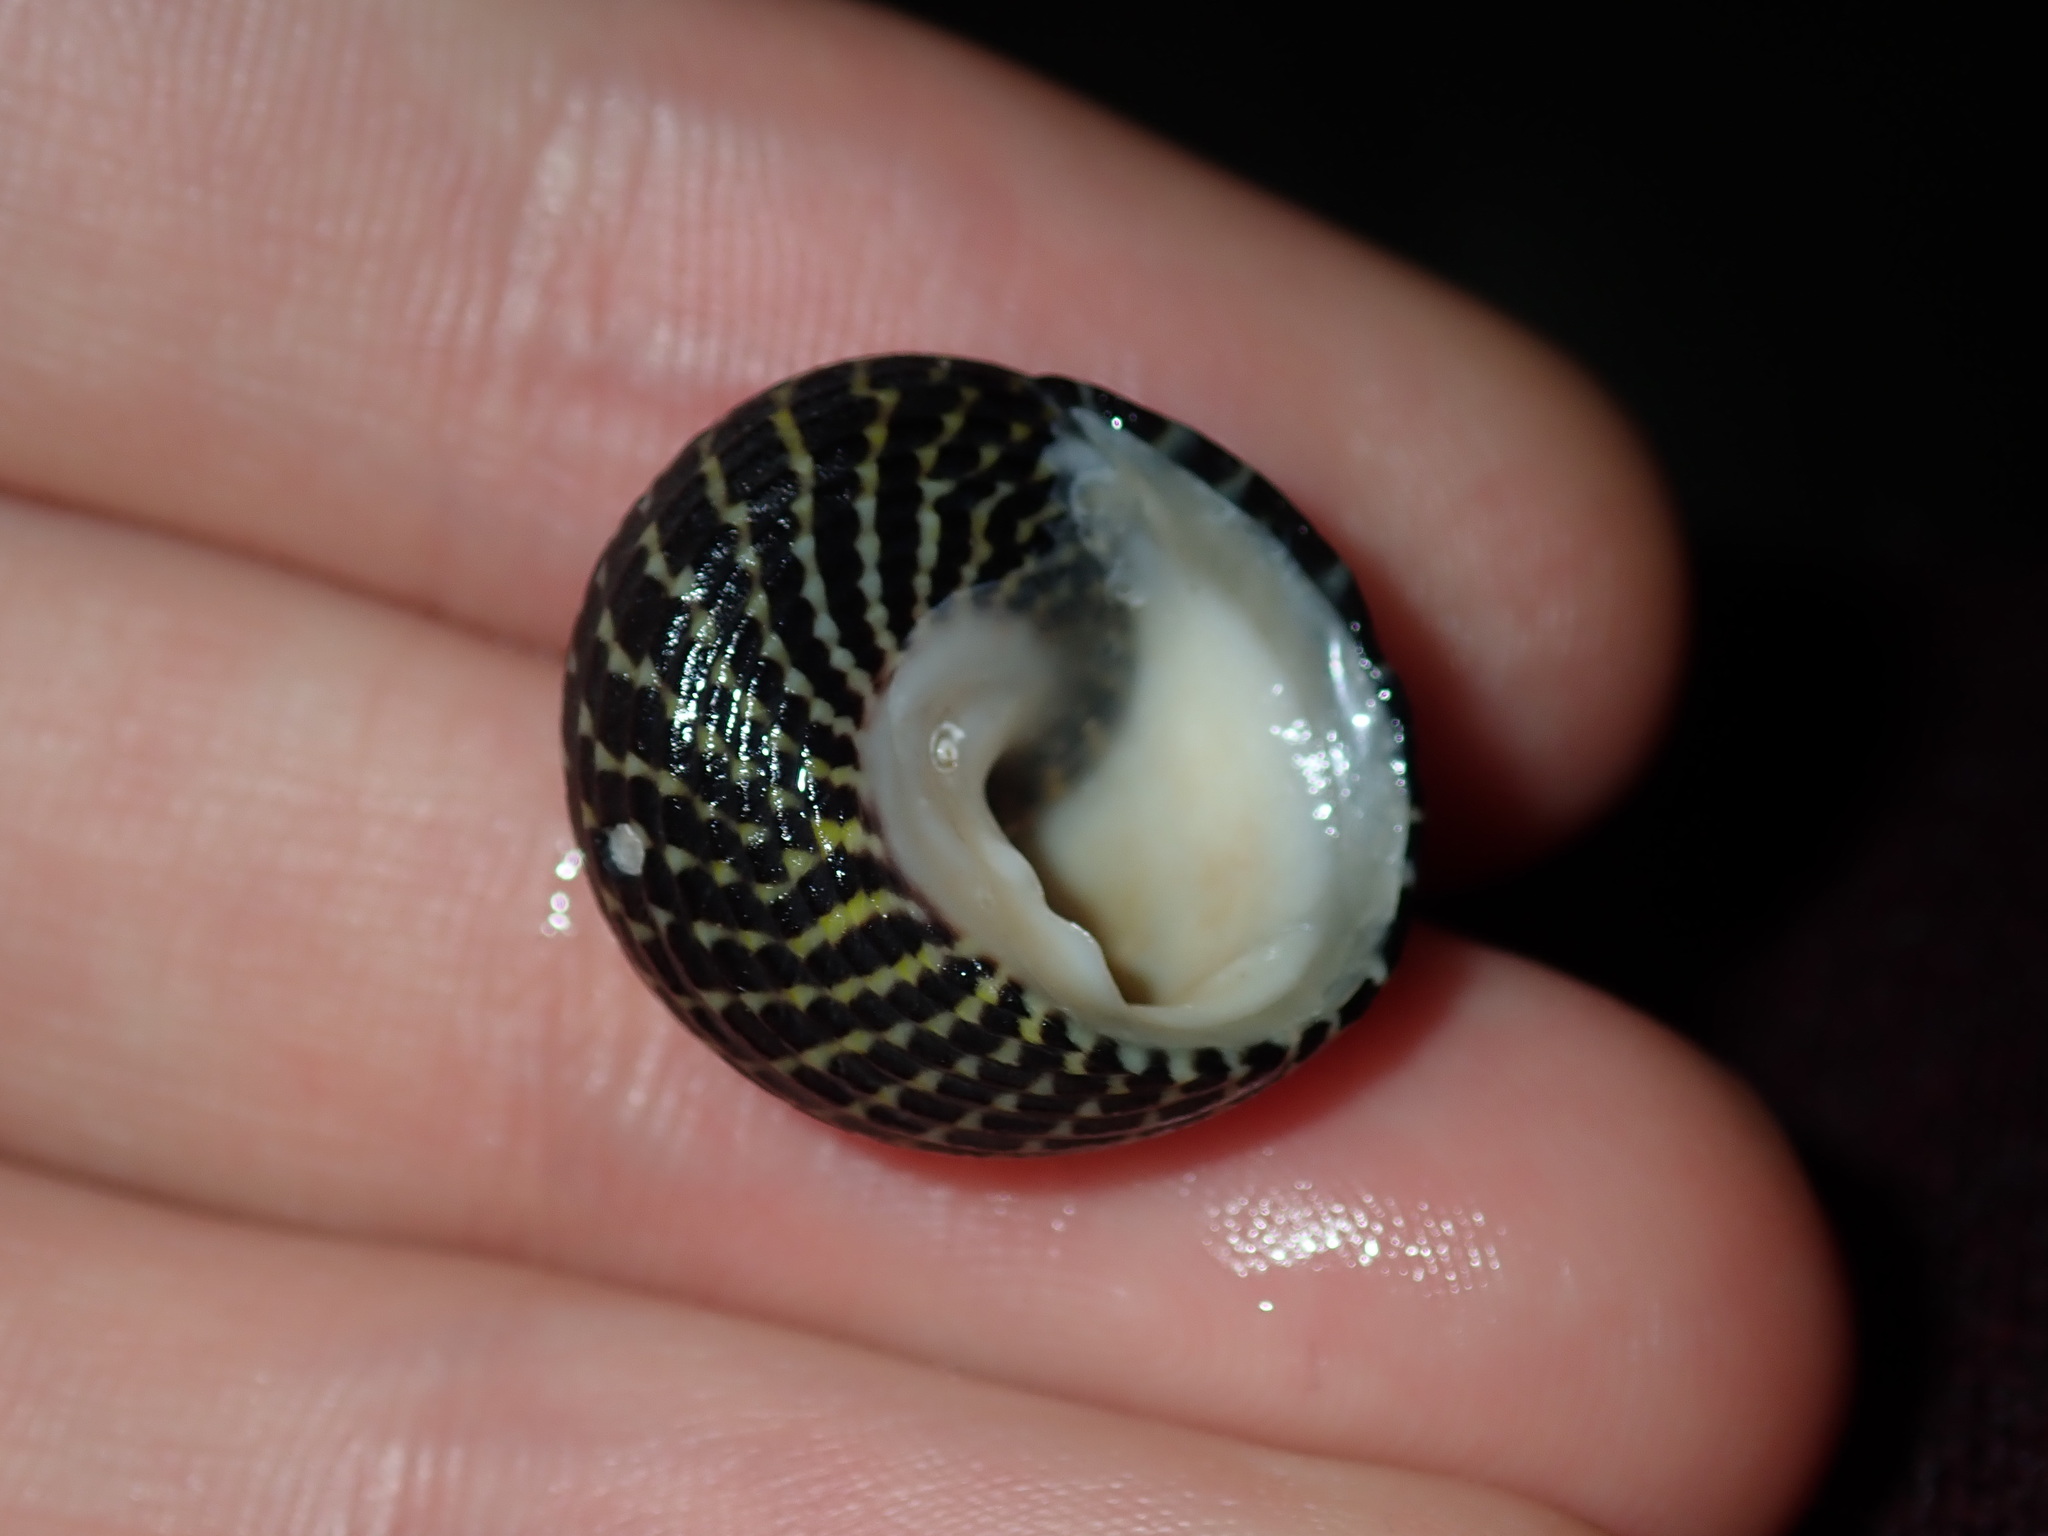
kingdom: Animalia
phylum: Mollusca
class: Gastropoda
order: Trochida
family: Trochidae
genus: Diloma
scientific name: Diloma concameratum
